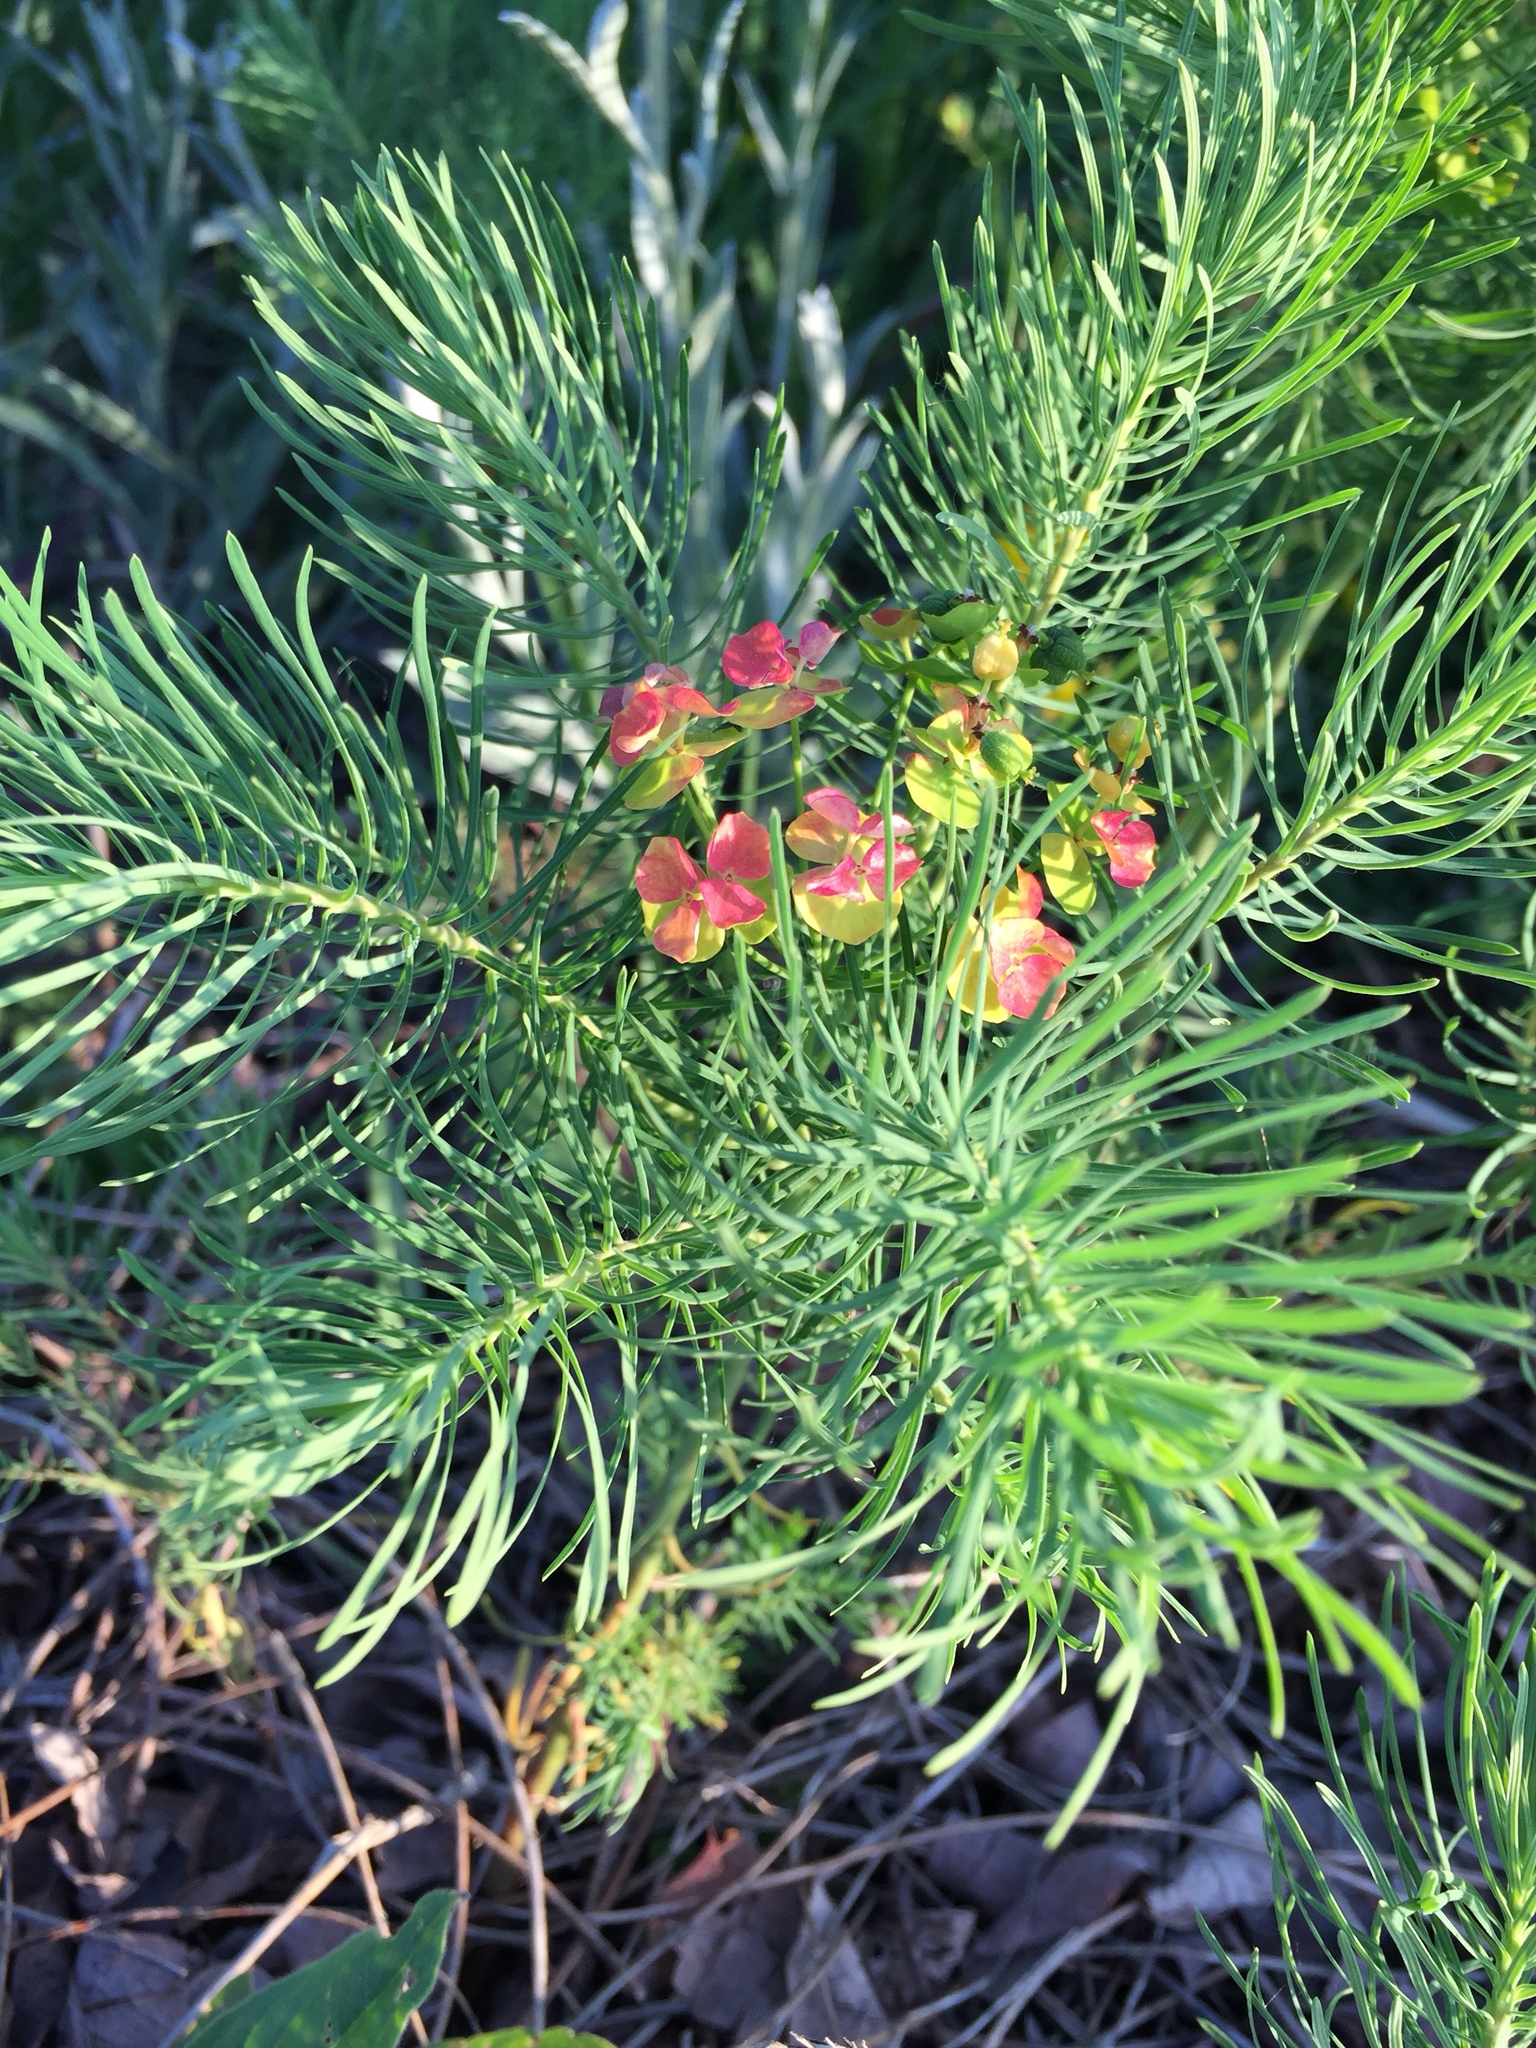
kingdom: Plantae
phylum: Tracheophyta
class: Magnoliopsida
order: Malpighiales
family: Euphorbiaceae
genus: Euphorbia
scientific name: Euphorbia cyparissias
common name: Cypress spurge
